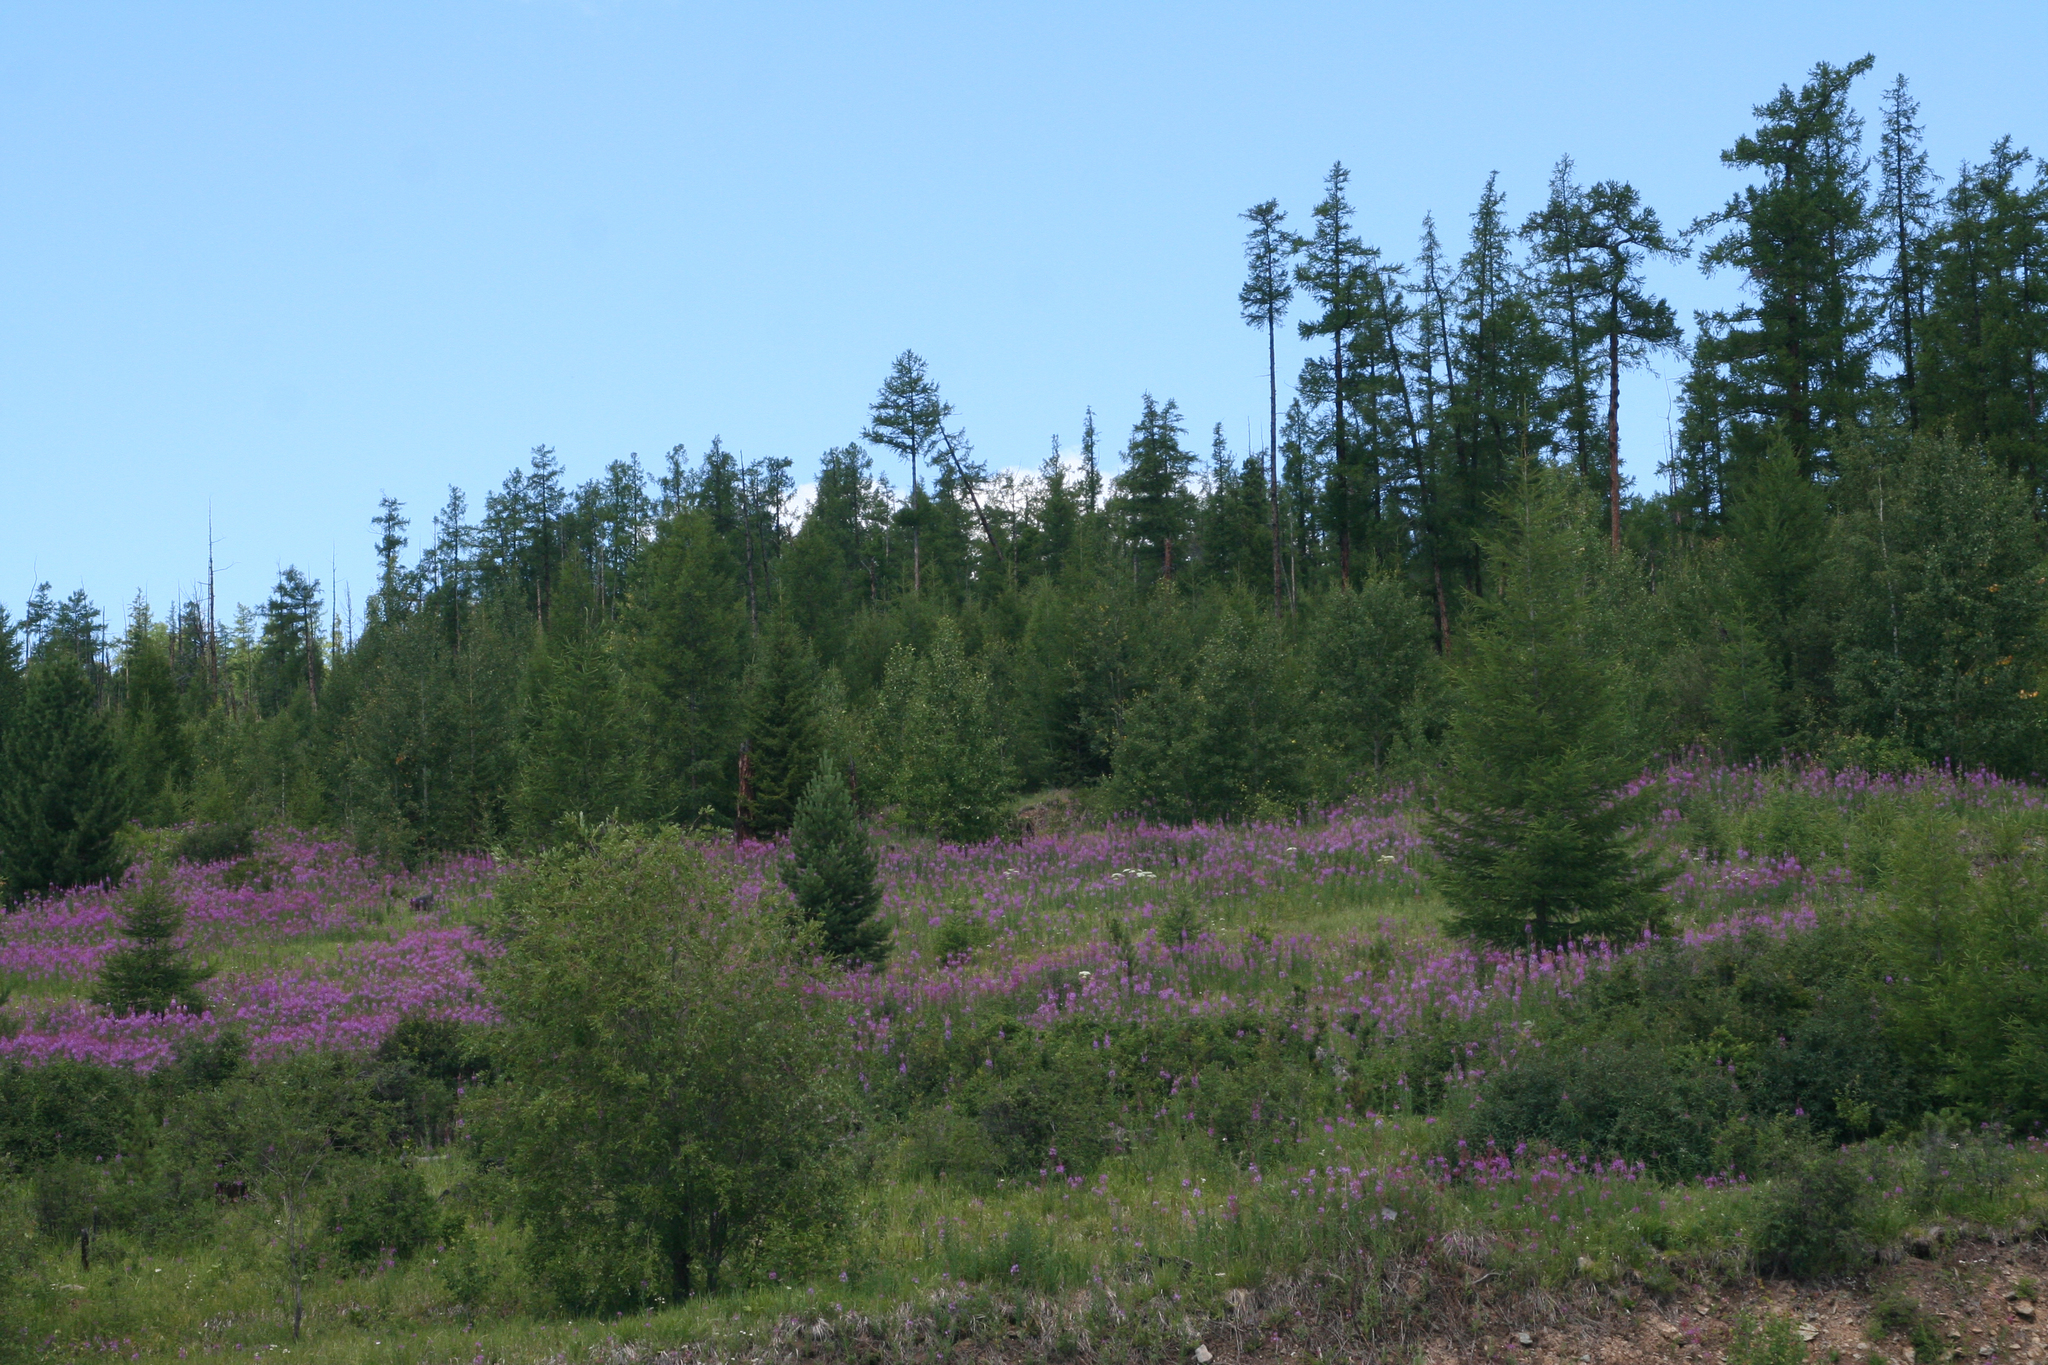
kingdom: Plantae
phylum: Tracheophyta
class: Magnoliopsida
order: Myrtales
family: Onagraceae
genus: Chamaenerion
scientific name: Chamaenerion angustifolium
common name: Fireweed
